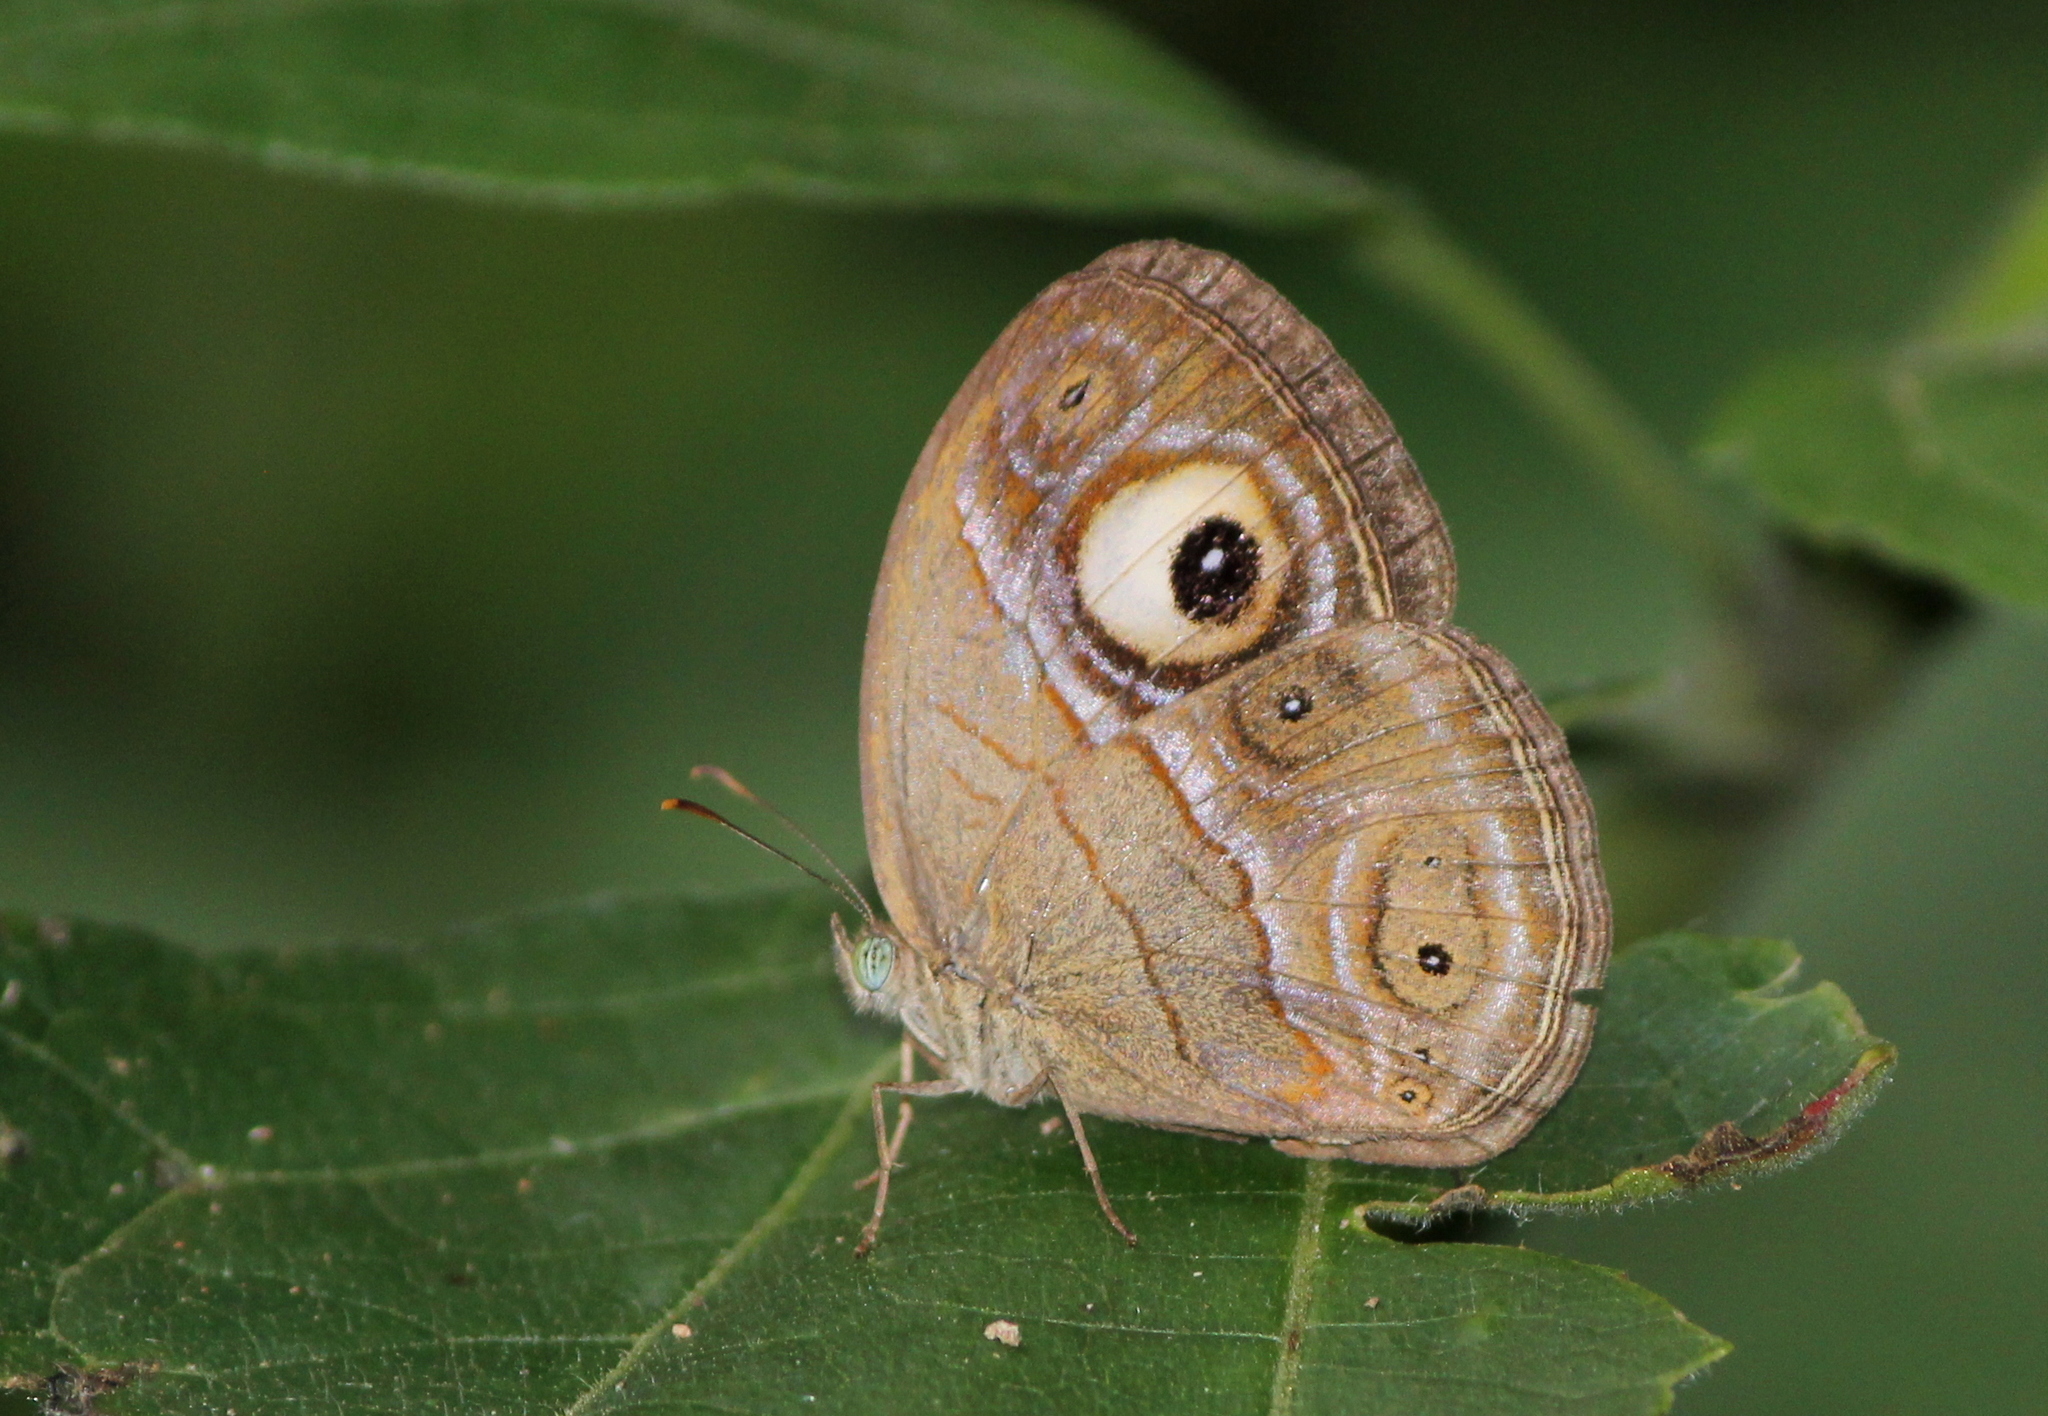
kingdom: Animalia
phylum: Arthropoda
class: Insecta
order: Lepidoptera
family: Nymphalidae
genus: Mycalesis
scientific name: Mycalesis patnia
